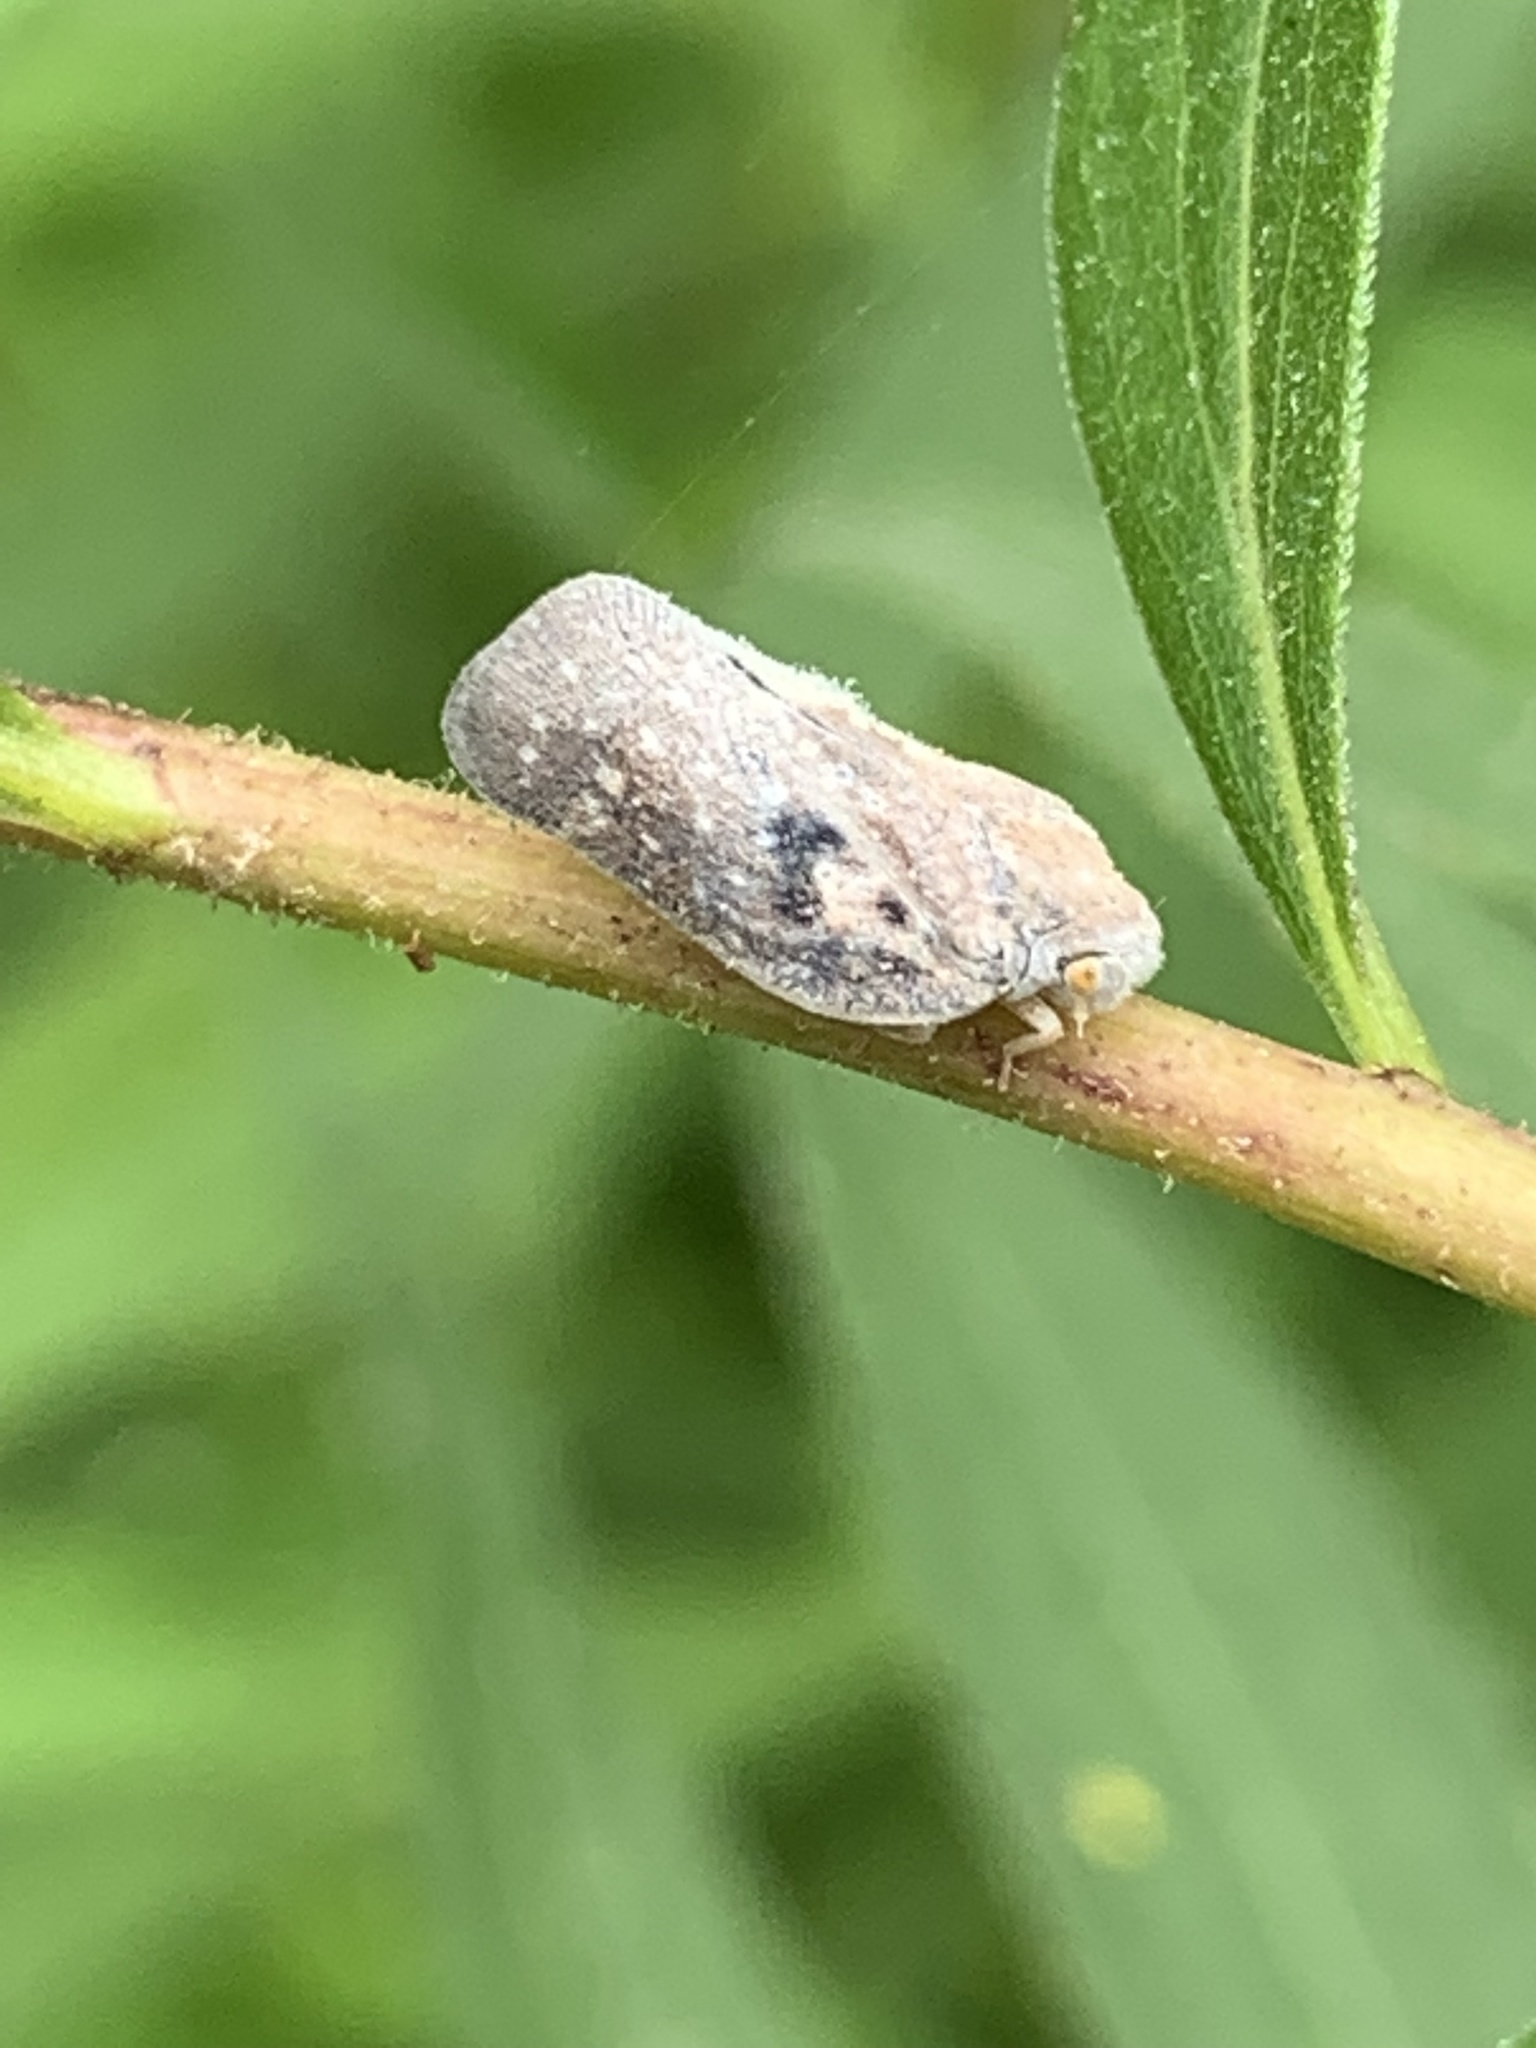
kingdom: Animalia
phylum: Arthropoda
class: Insecta
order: Hemiptera
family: Flatidae
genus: Metcalfa
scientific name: Metcalfa pruinosa
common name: Citrus flatid planthopper
